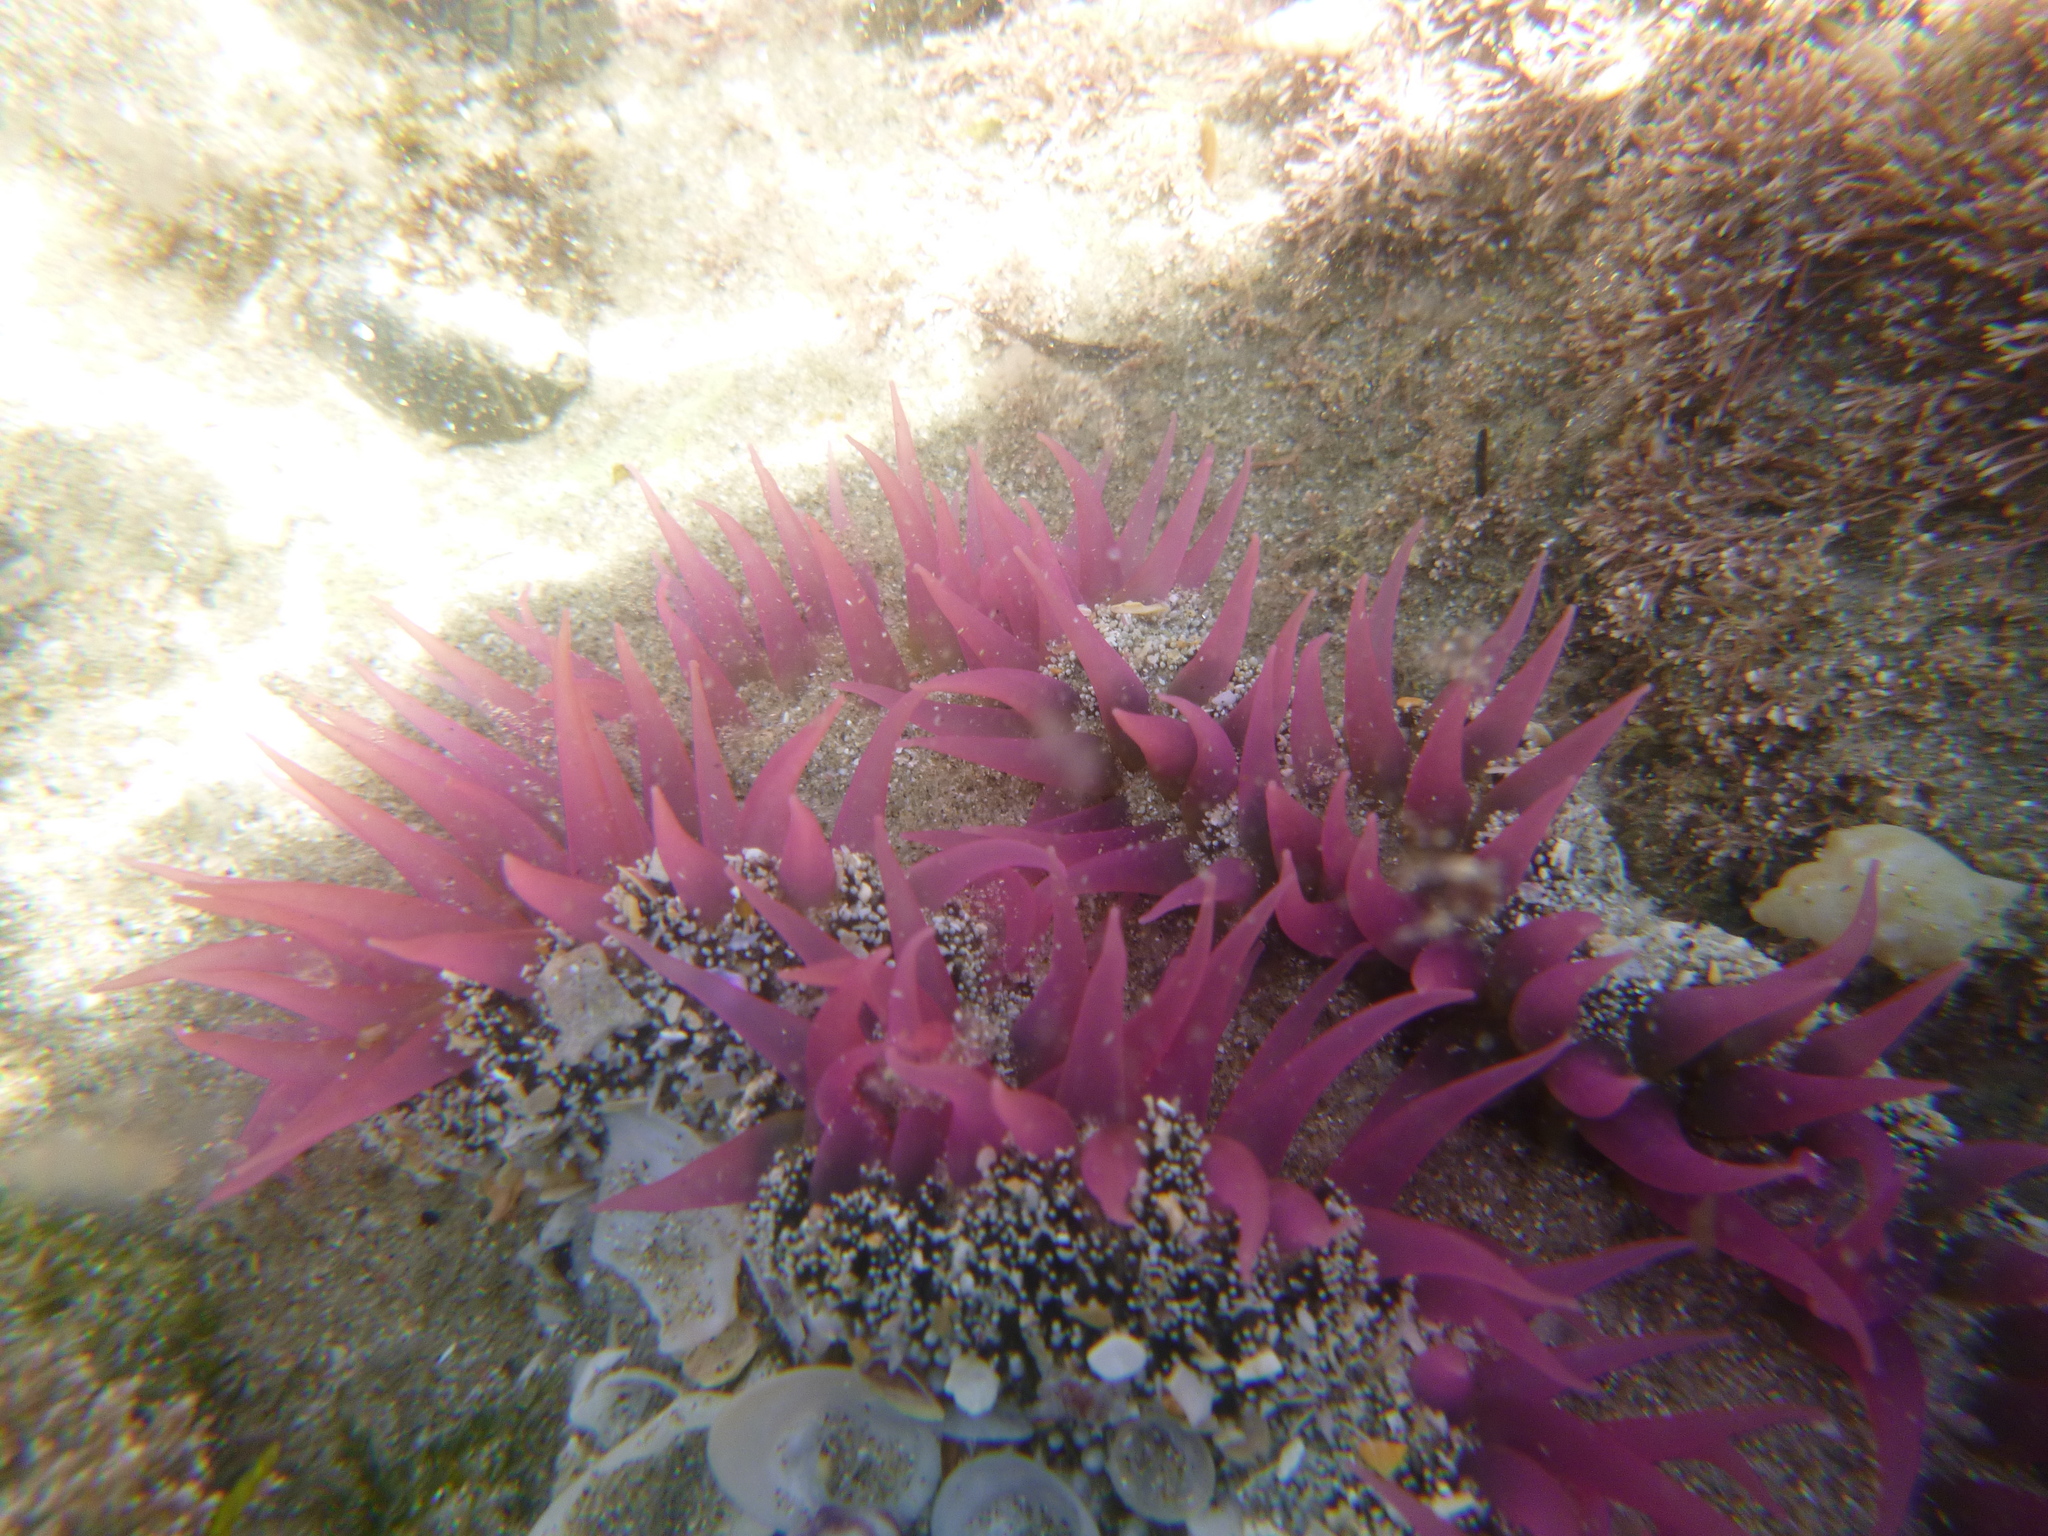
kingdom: Animalia
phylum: Cnidaria
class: Anthozoa
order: Actiniaria
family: Actiniidae
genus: Oulactis
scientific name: Oulactis magna
